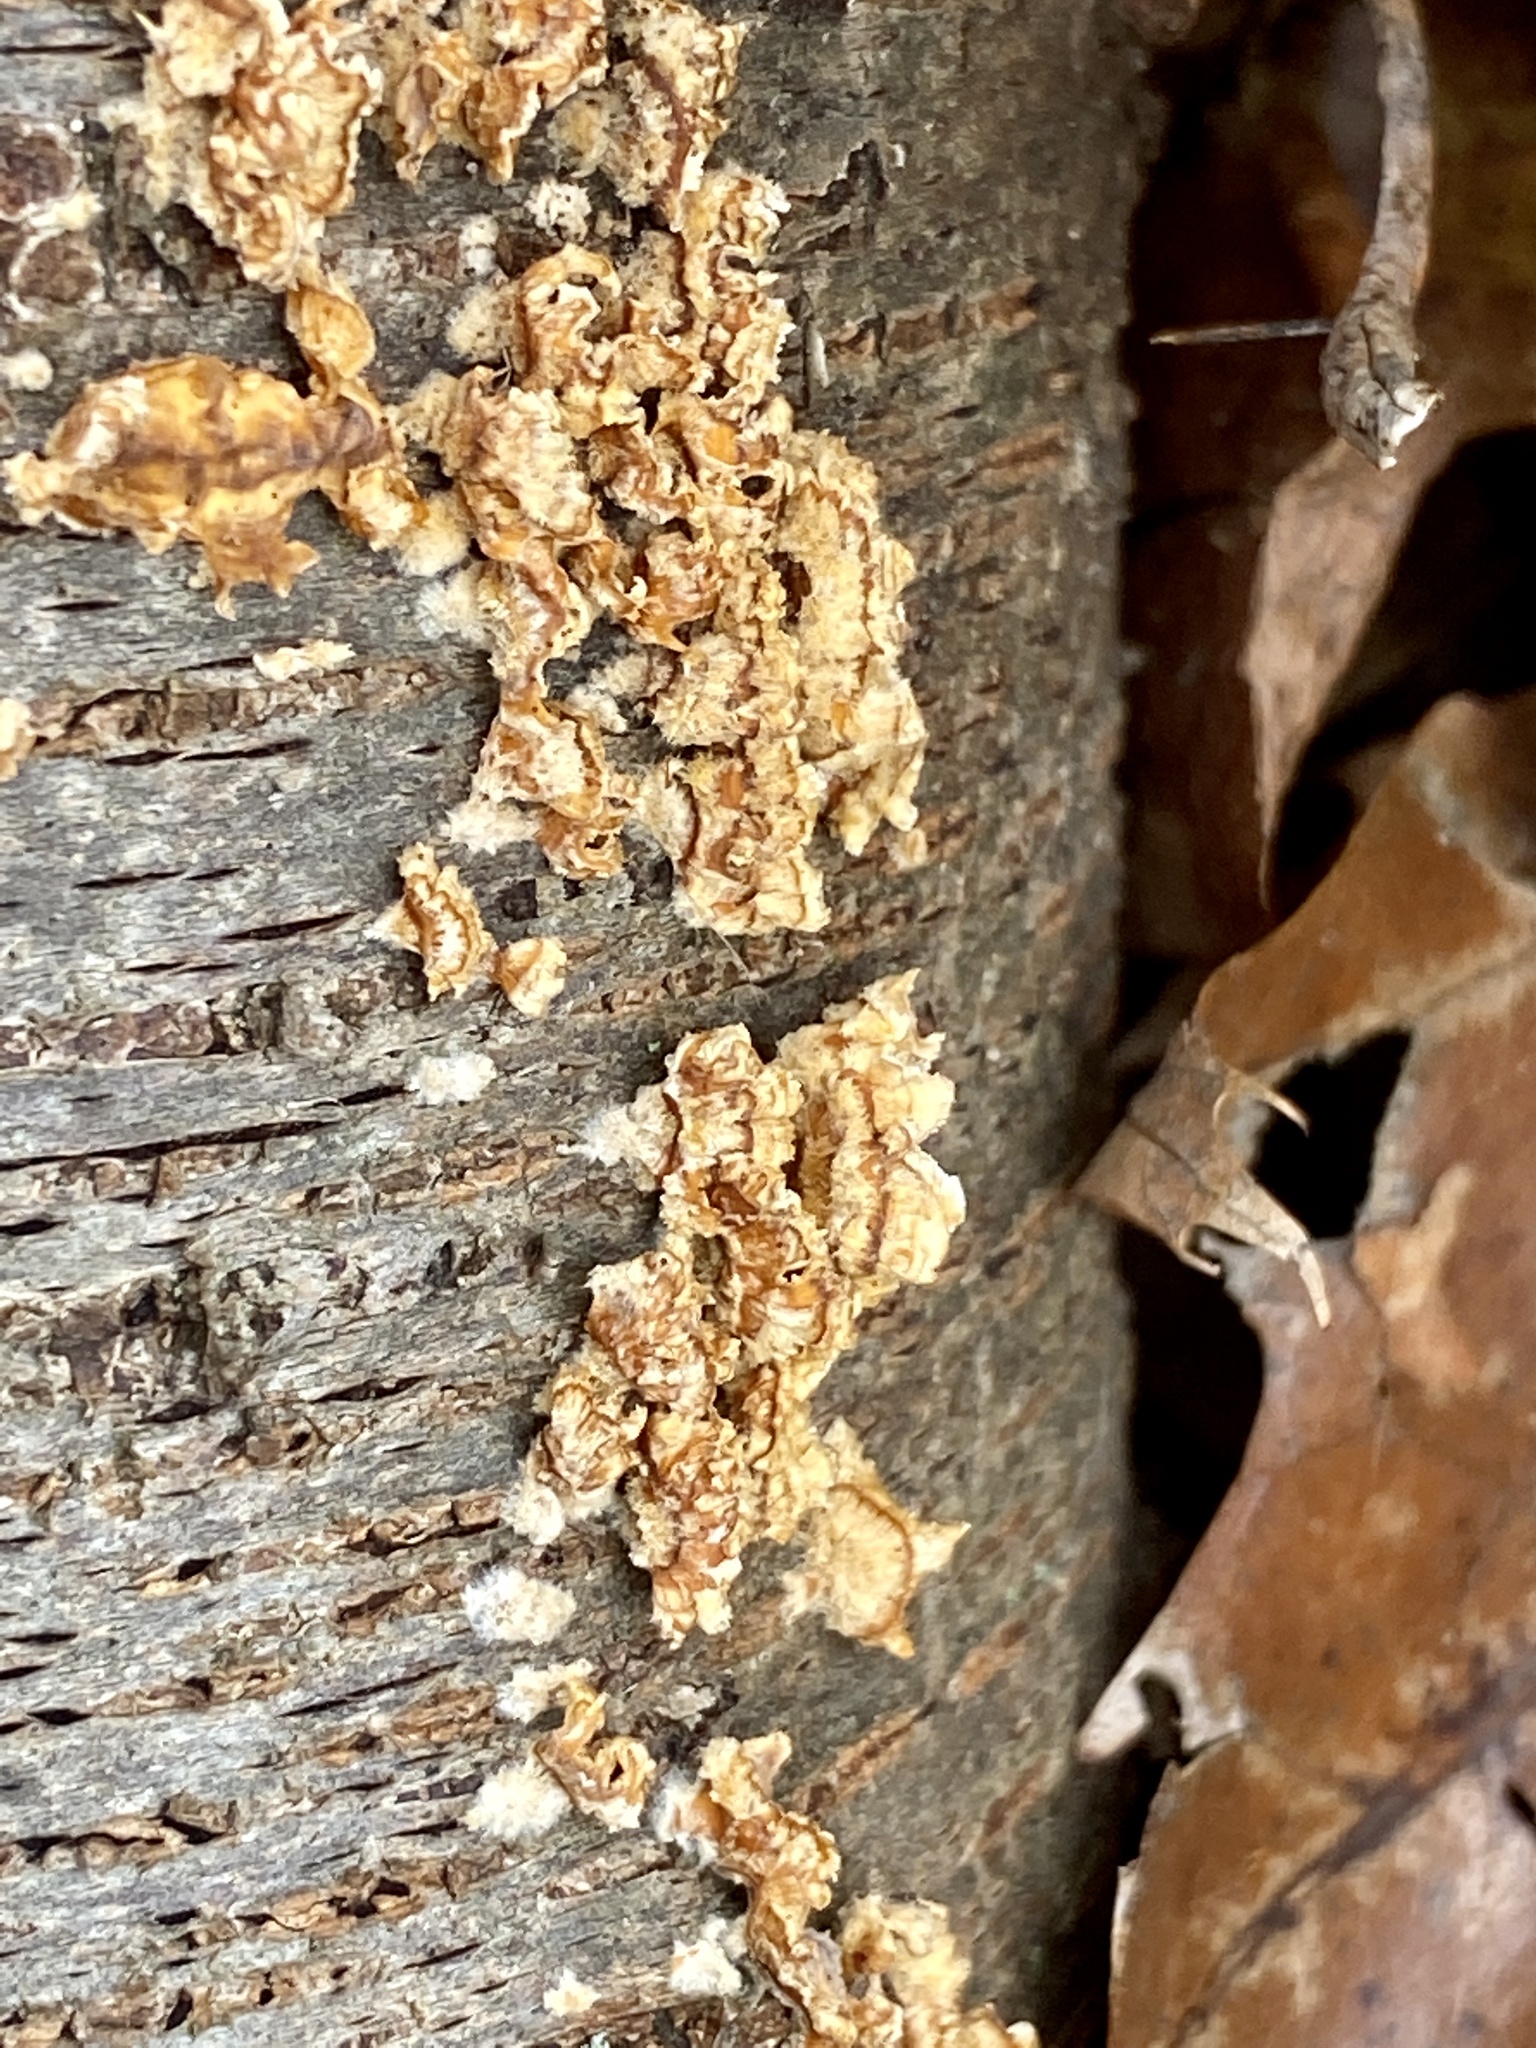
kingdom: Fungi
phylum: Basidiomycota
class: Agaricomycetes
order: Russulales
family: Stereaceae
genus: Stereum
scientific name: Stereum complicatum
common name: Crowded parchment
